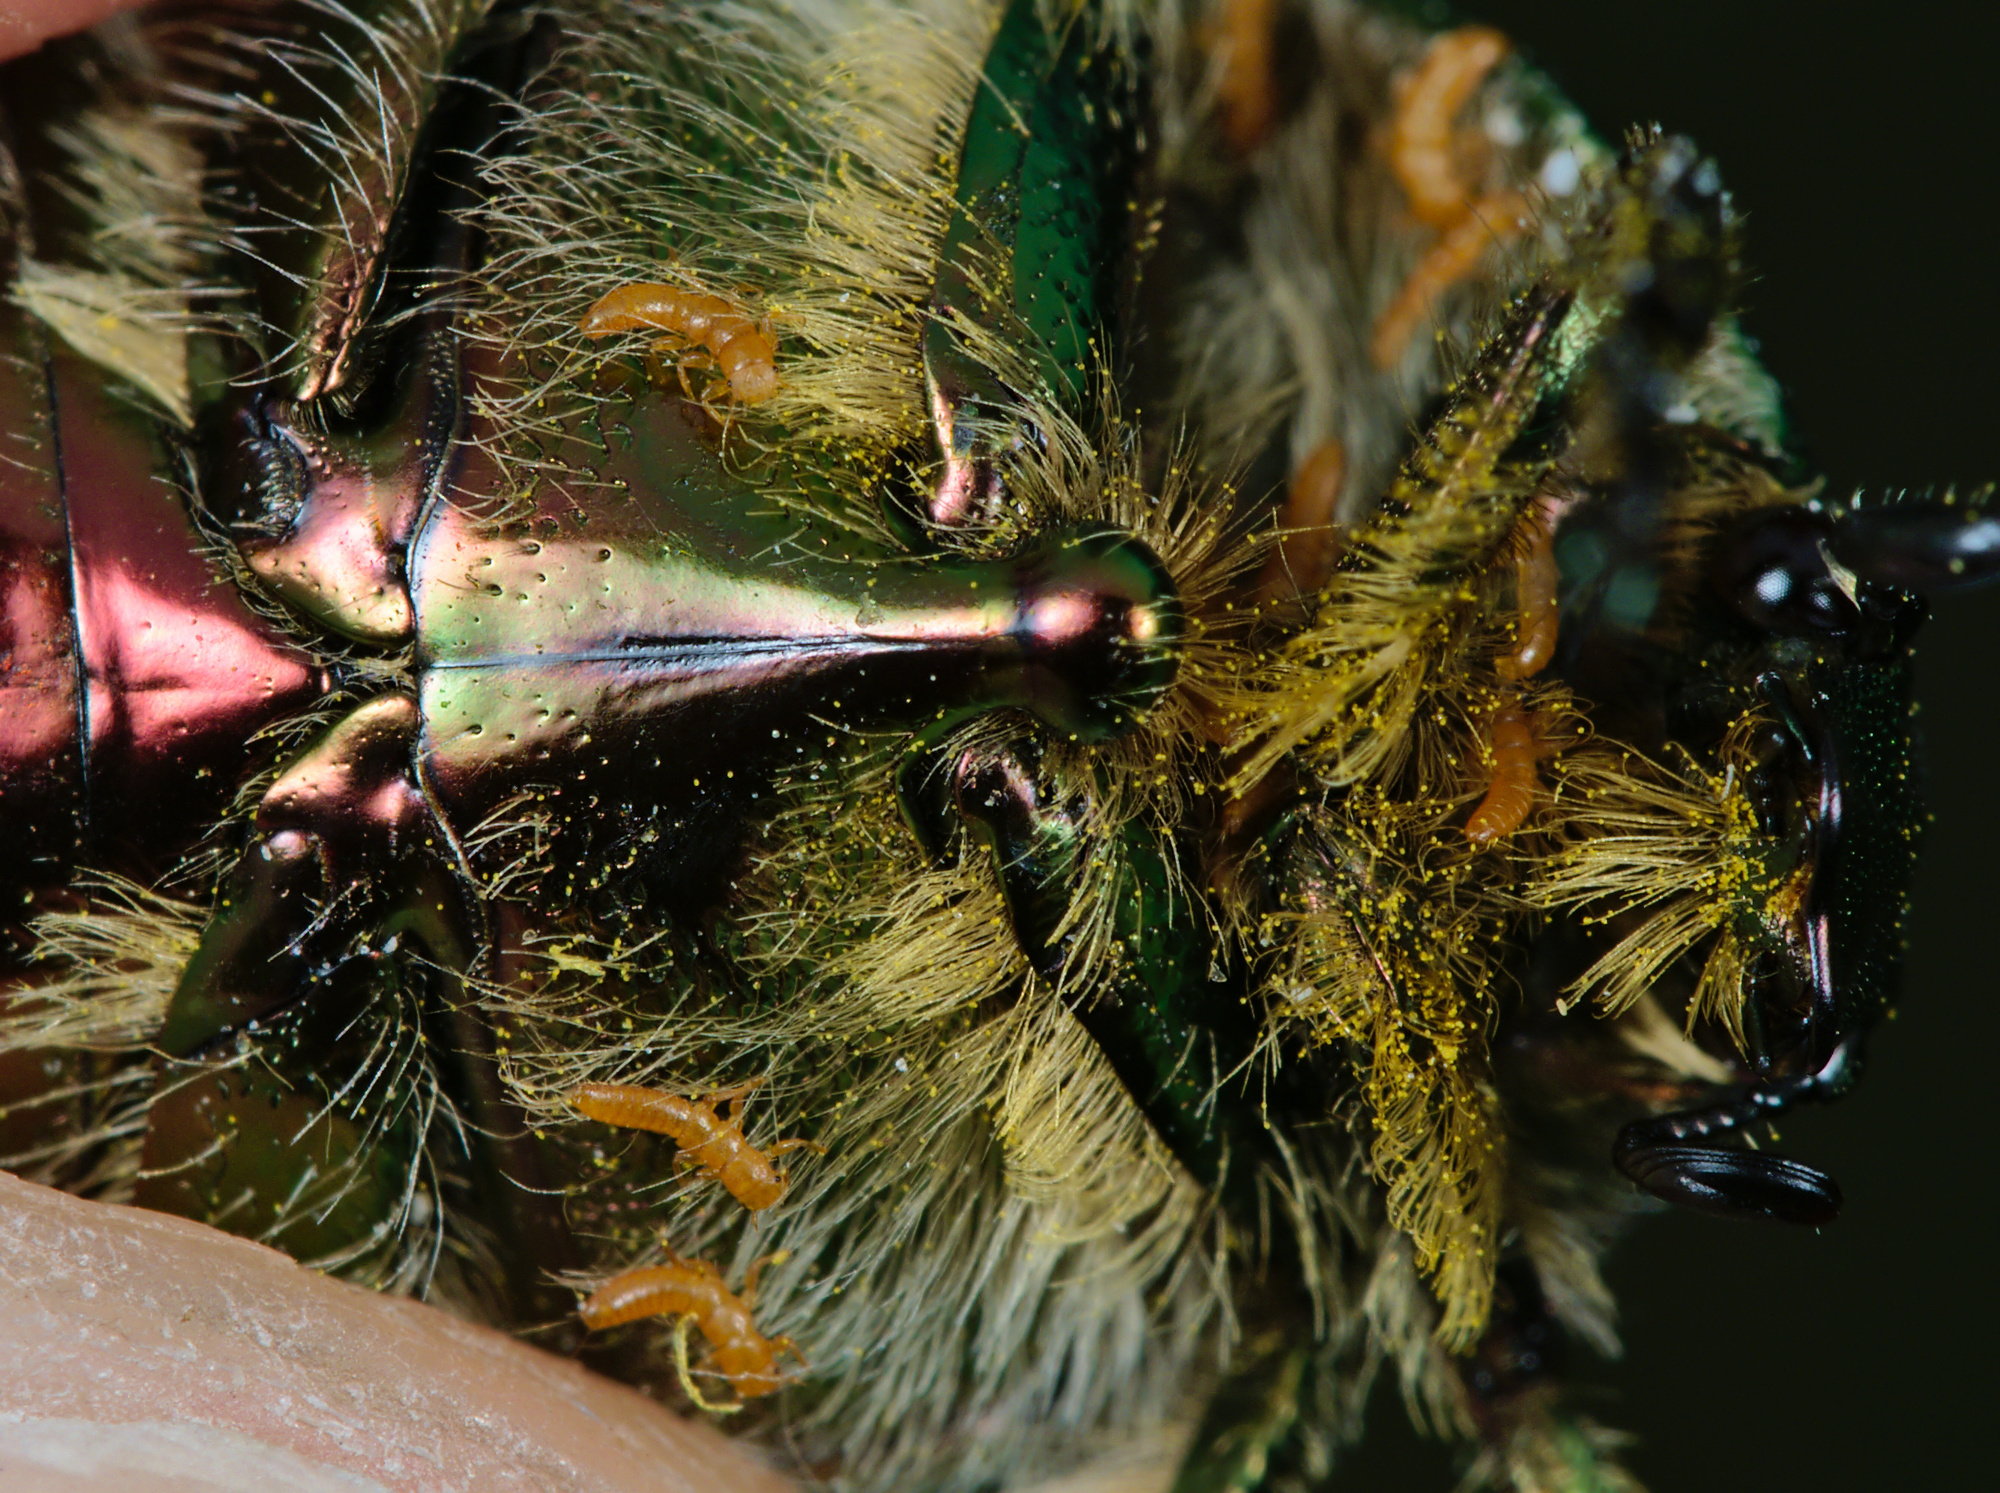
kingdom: Animalia
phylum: Arthropoda
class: Insecta
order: Coleoptera
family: Scarabaeidae
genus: Cetonia
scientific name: Cetonia aurata
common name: Rose chafer
